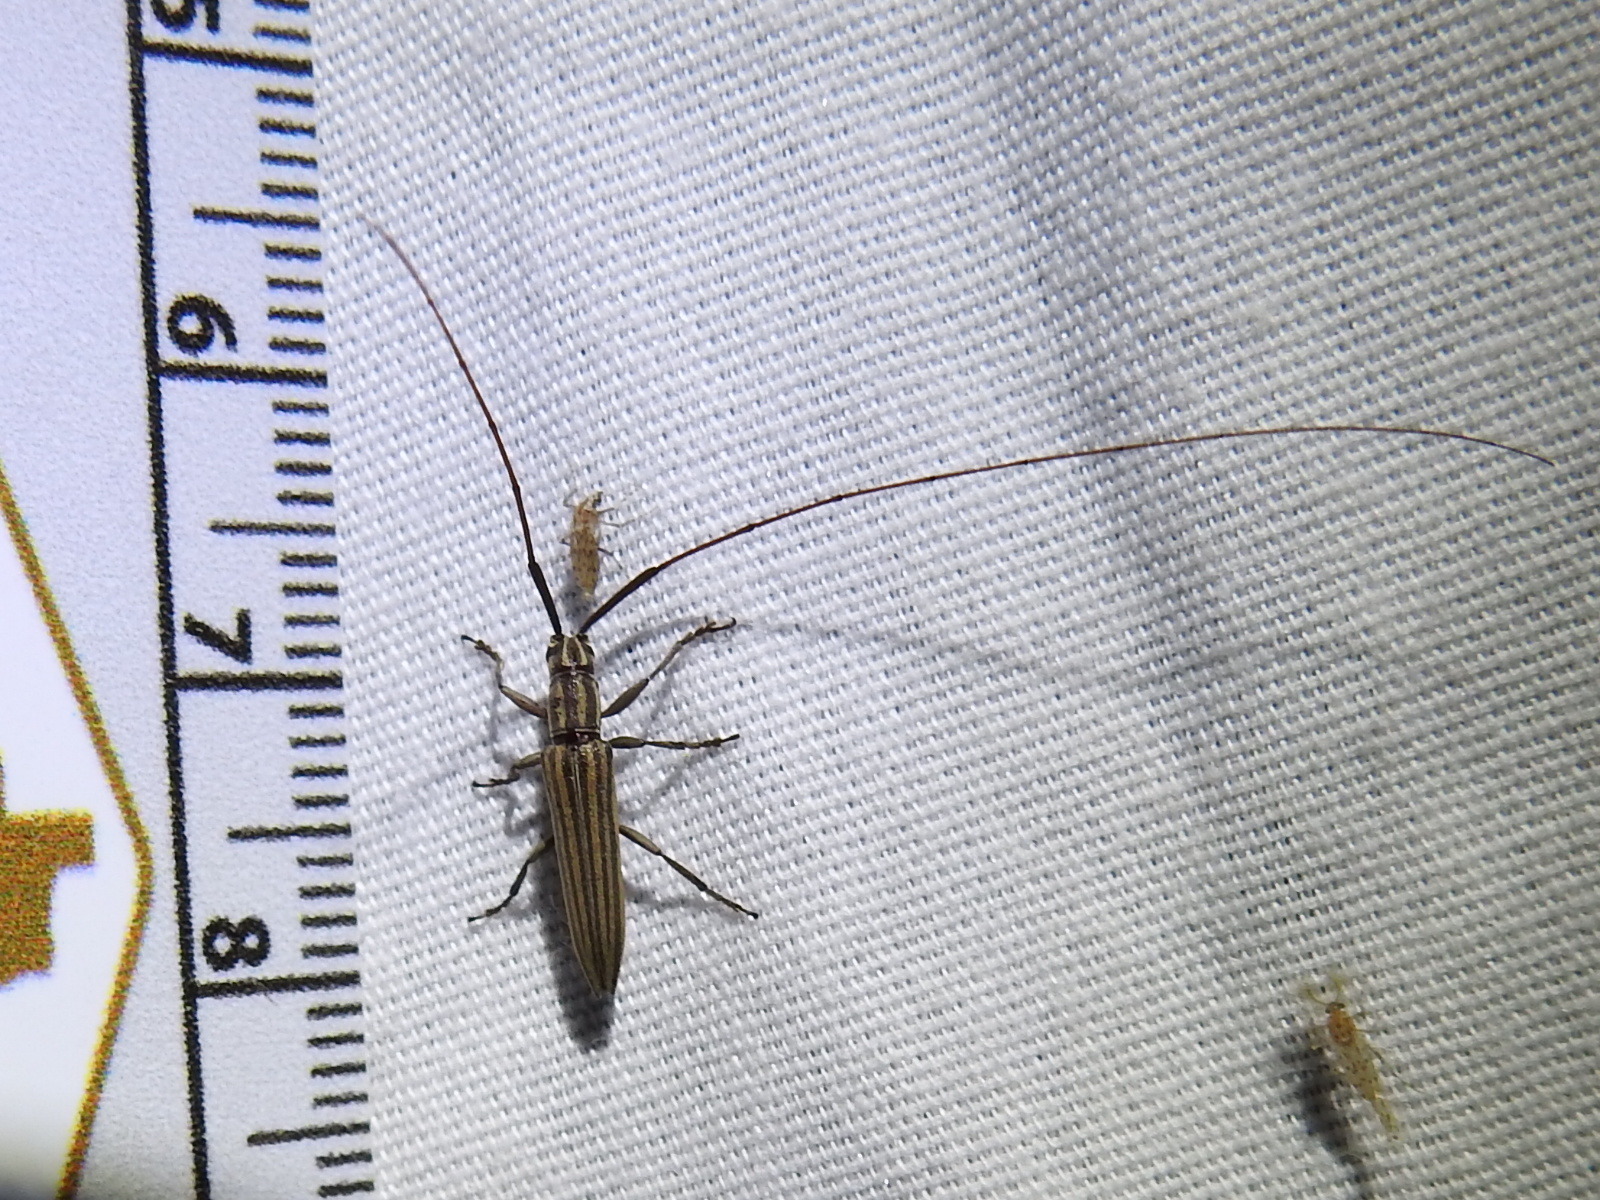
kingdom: Animalia
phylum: Arthropoda
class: Insecta
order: Coleoptera
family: Cerambycidae
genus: Hippopsis
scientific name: Hippopsis
